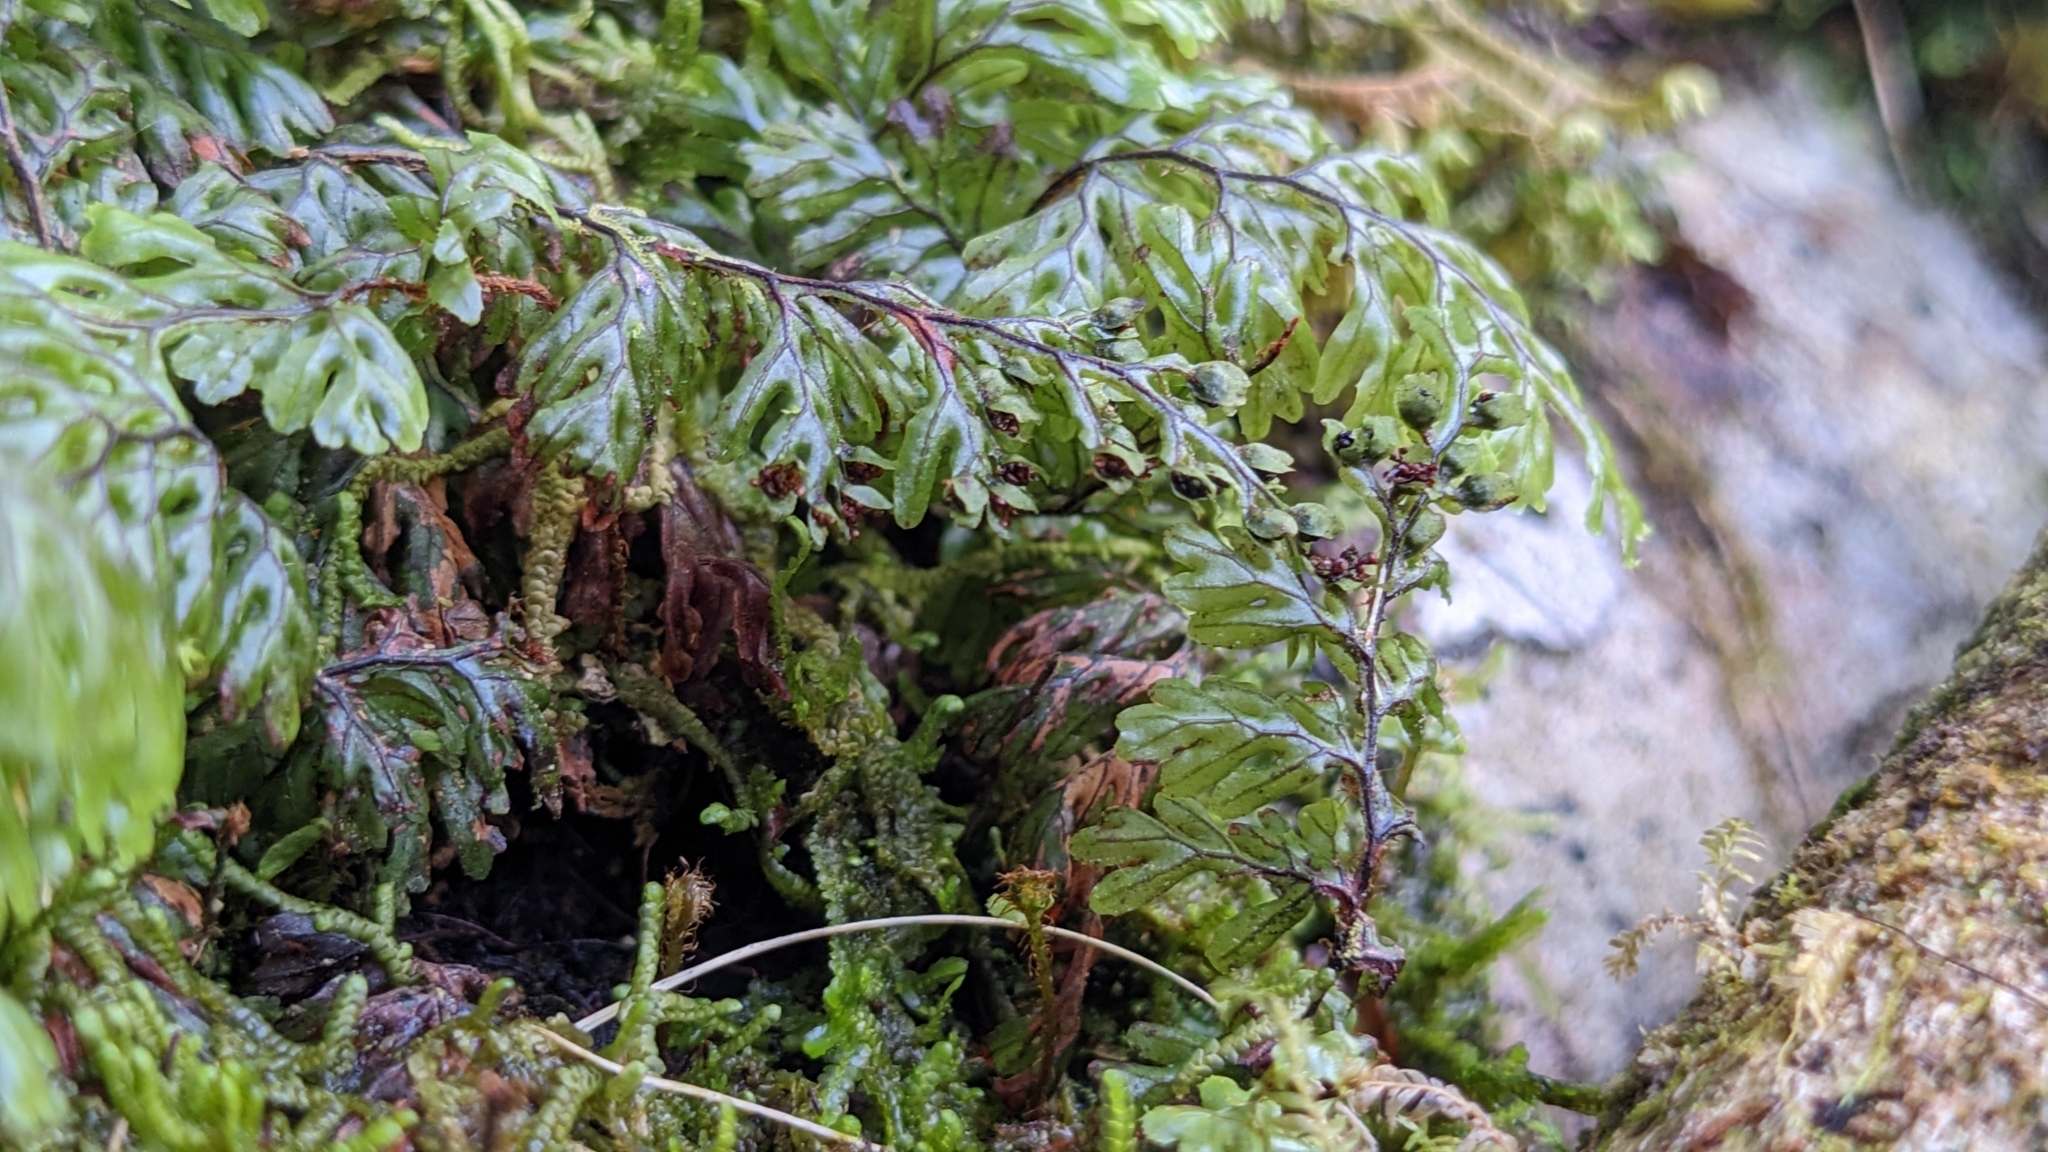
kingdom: Plantae
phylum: Tracheophyta
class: Polypodiopsida
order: Hymenophyllales
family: Hymenophyllaceae
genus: Hymenophyllum
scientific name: Hymenophyllum devolii
